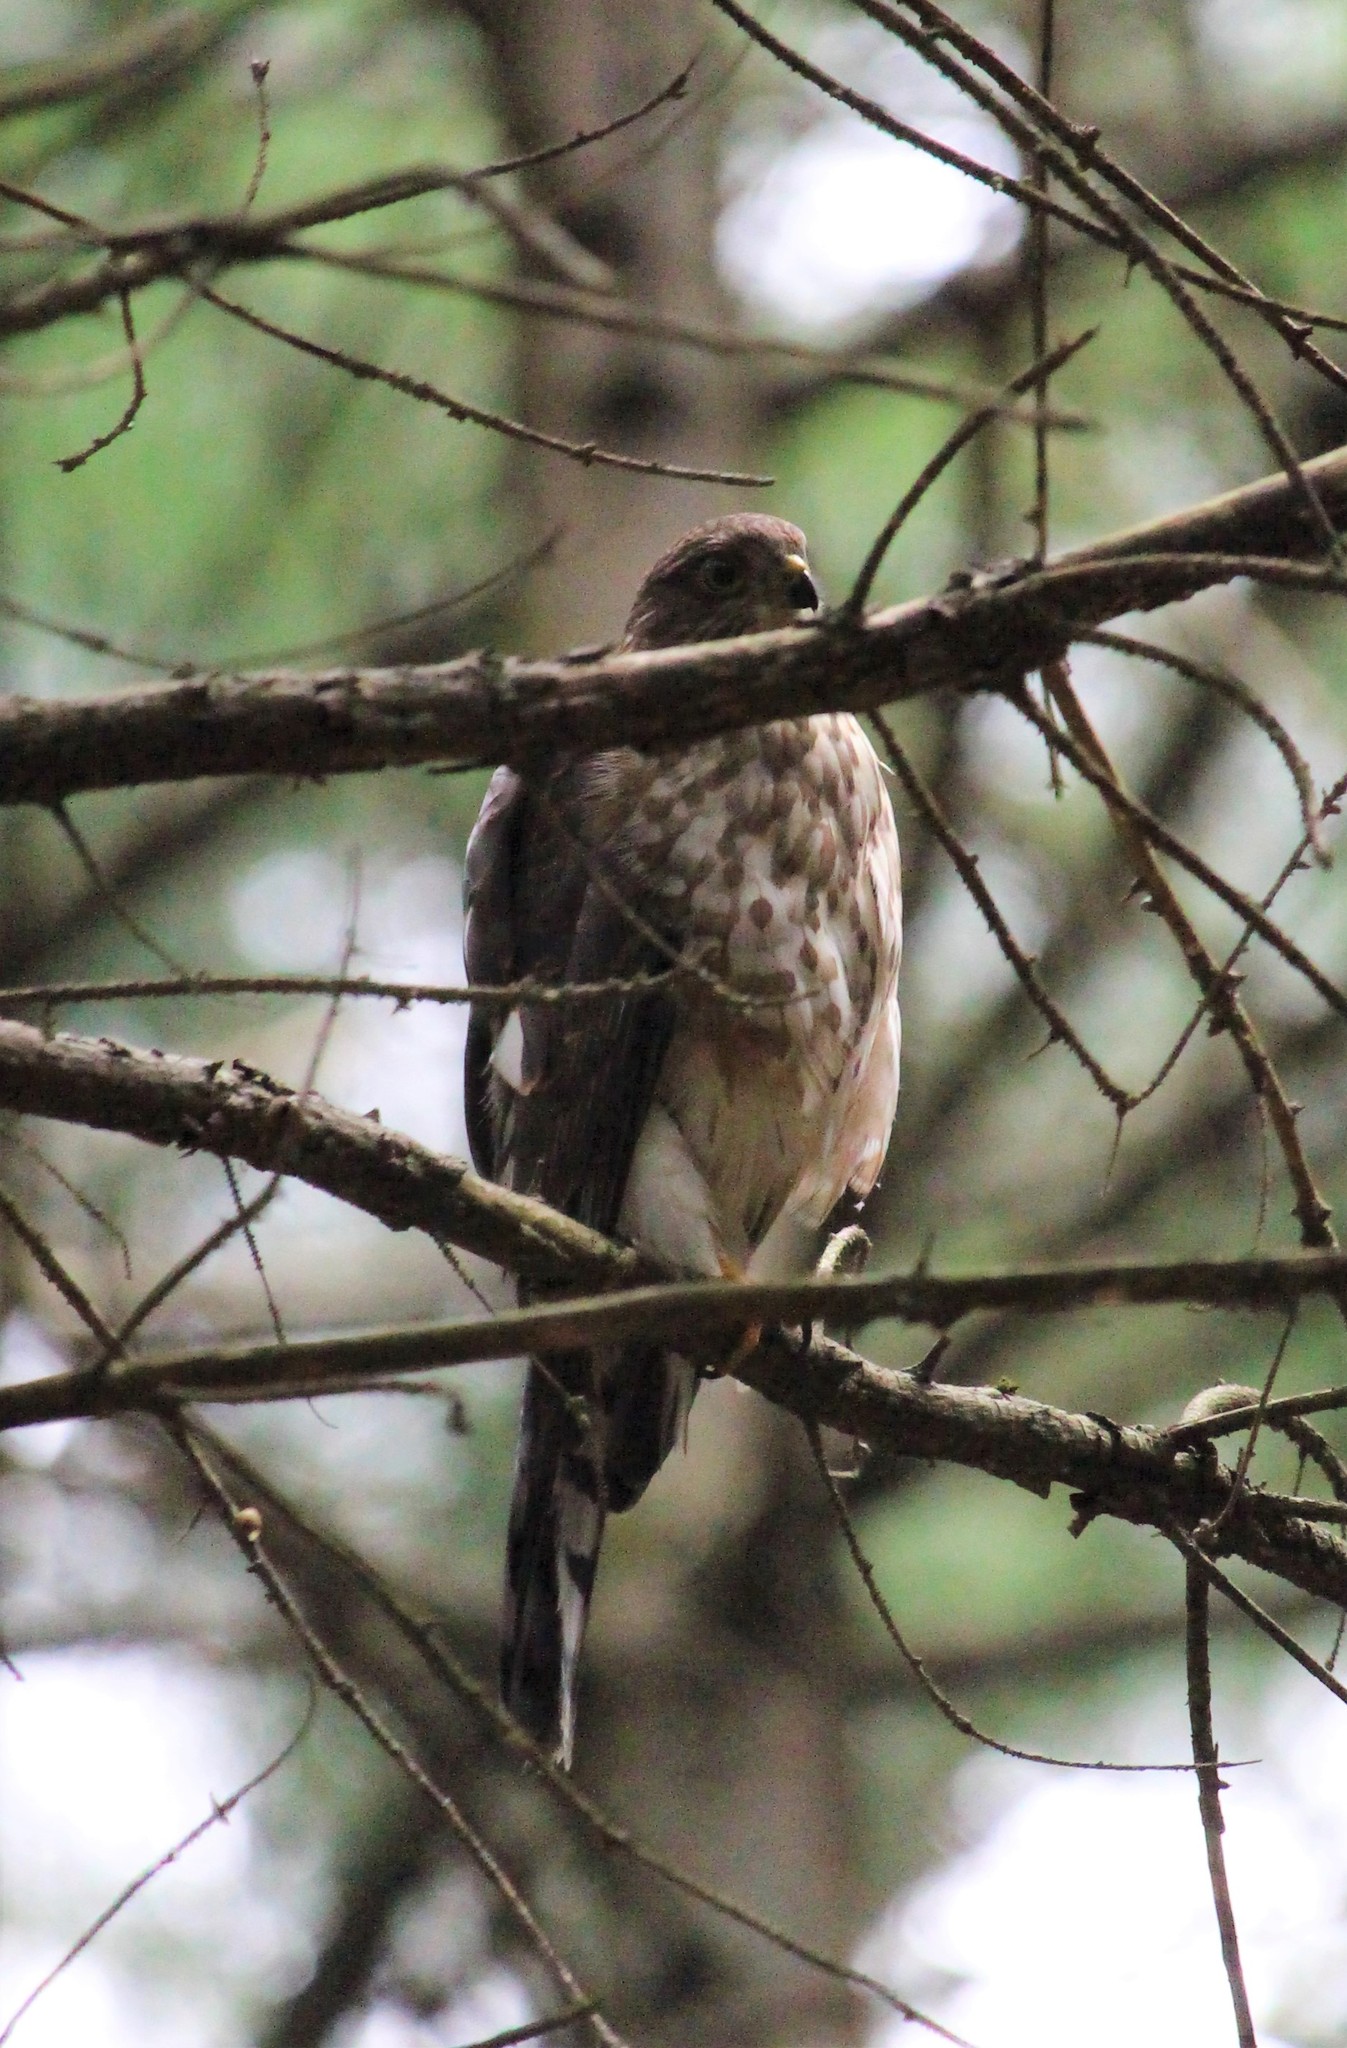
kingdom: Animalia
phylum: Chordata
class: Aves
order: Accipitriformes
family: Accipitridae
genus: Accipiter
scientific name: Accipiter striatus
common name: Sharp-shinned hawk
